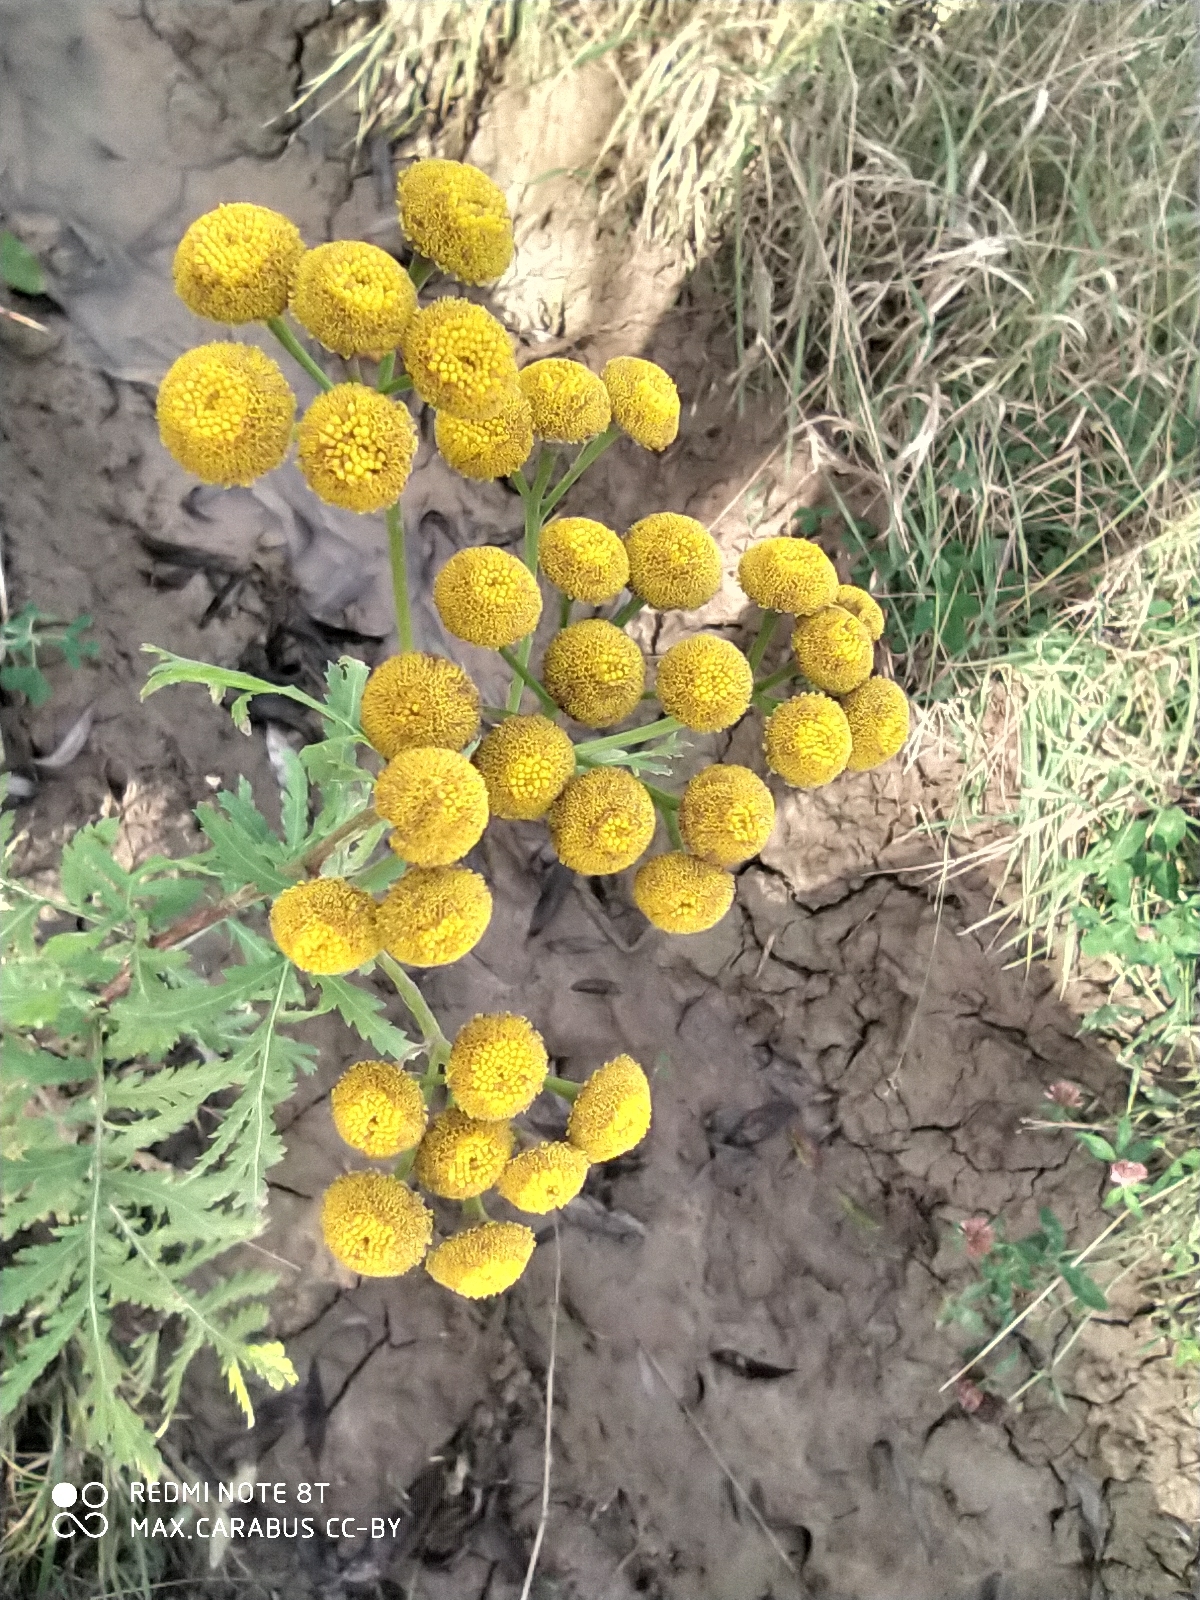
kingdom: Plantae
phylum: Tracheophyta
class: Magnoliopsida
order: Asterales
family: Asteraceae
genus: Tanacetum
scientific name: Tanacetum vulgare
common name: Common tansy
